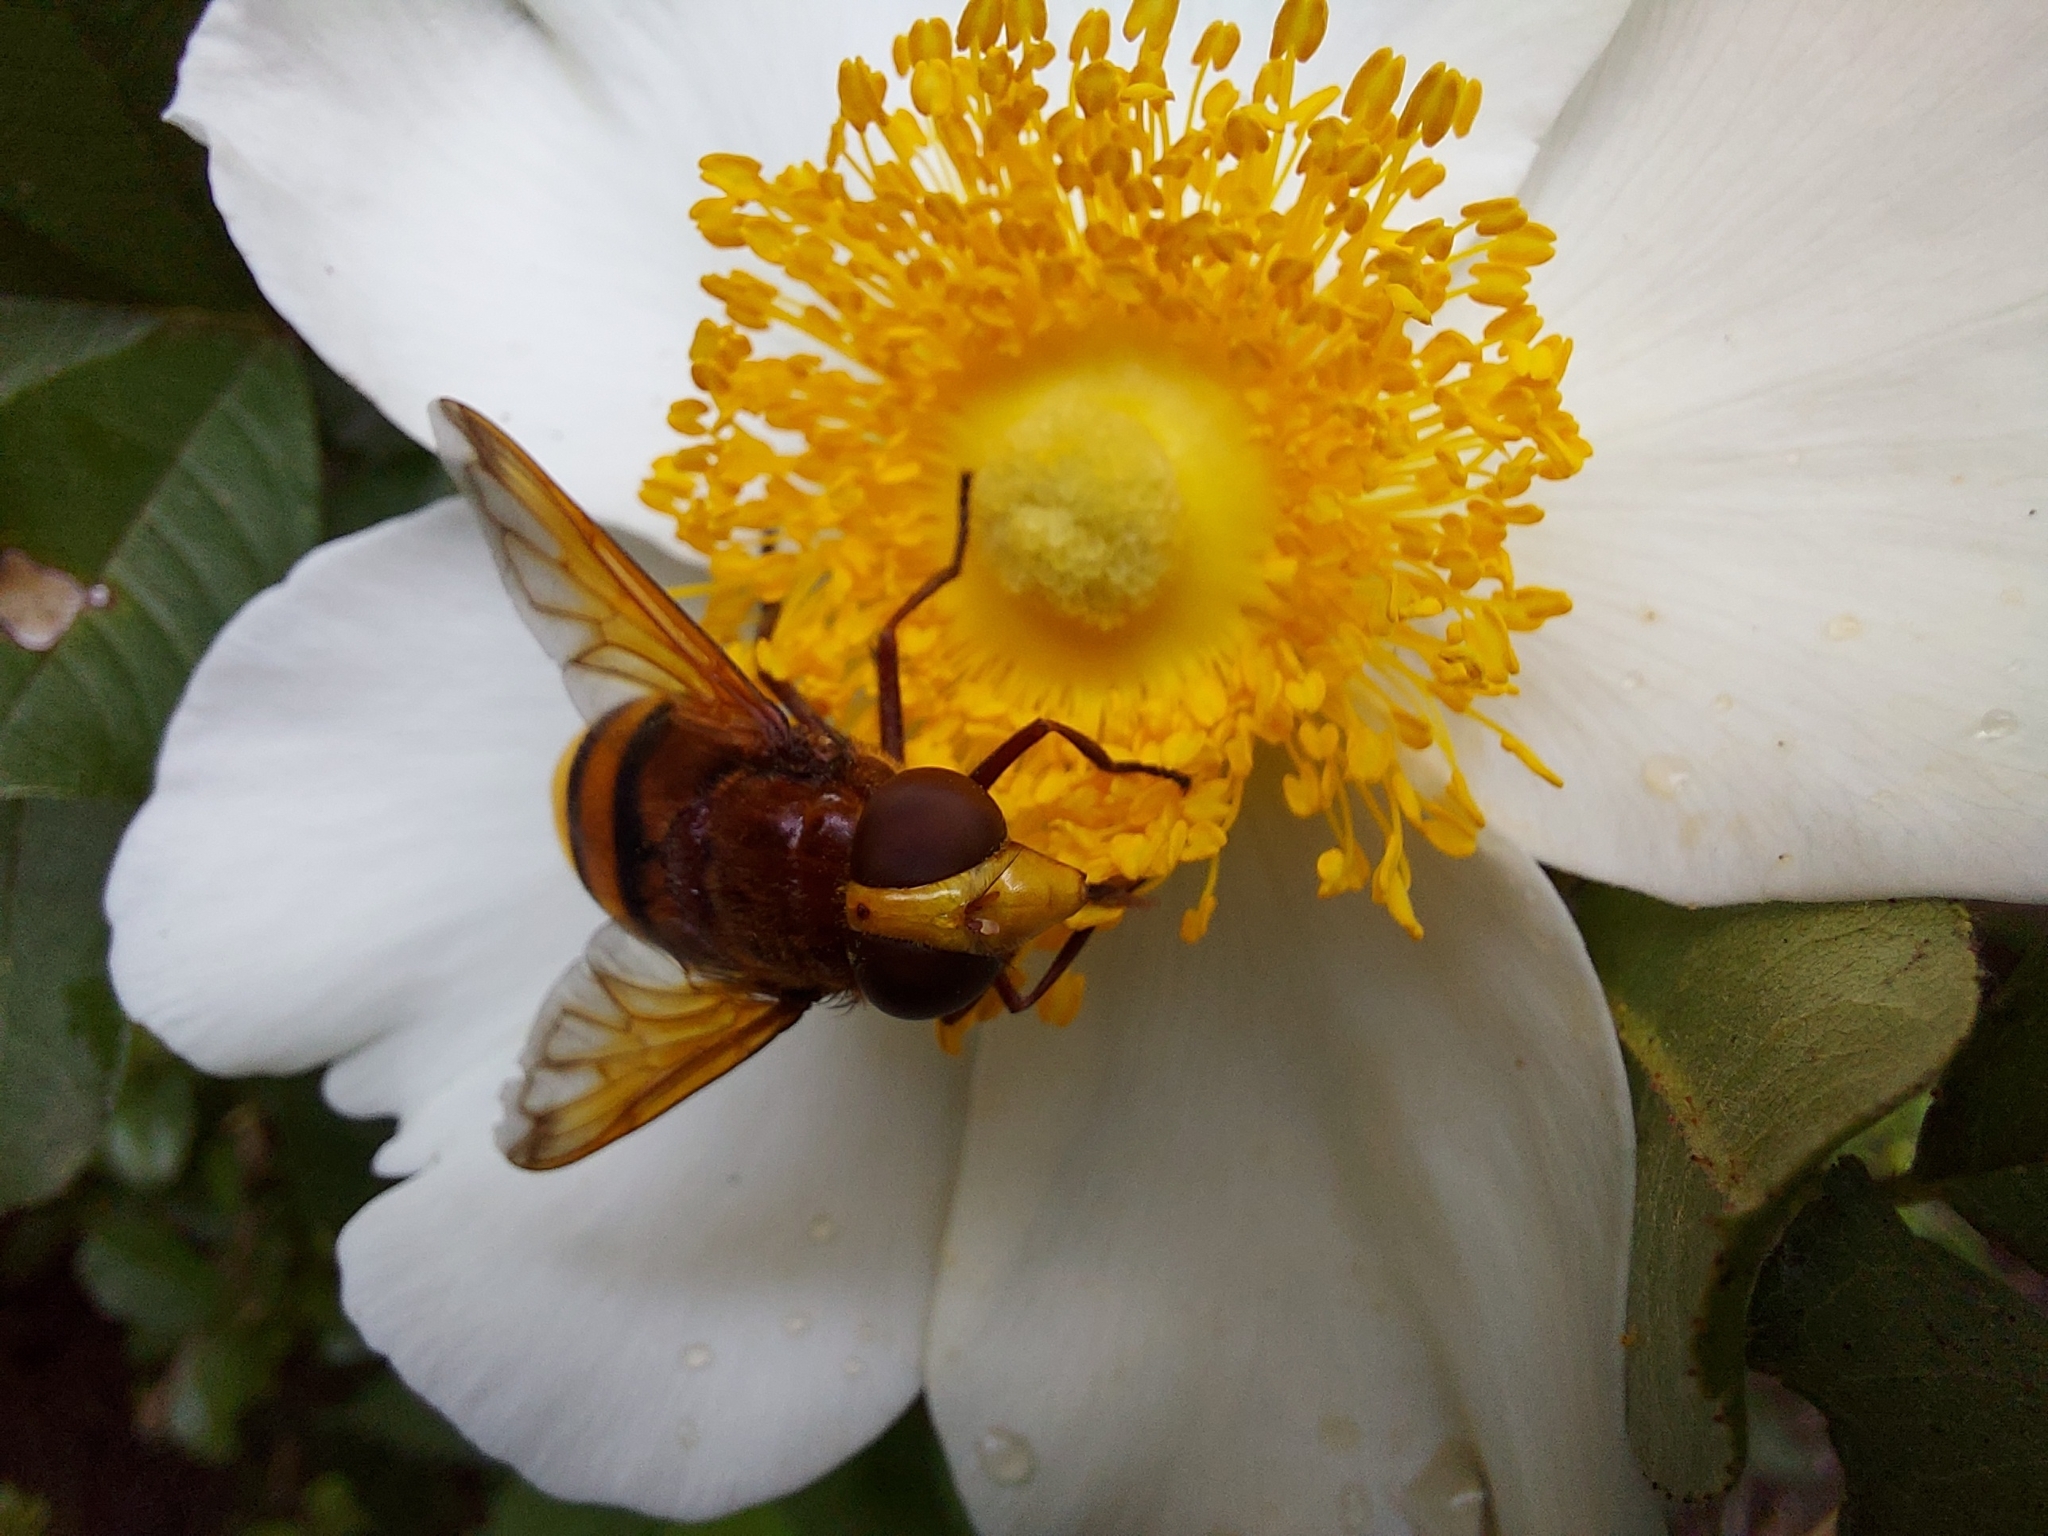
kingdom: Animalia
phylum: Arthropoda
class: Insecta
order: Diptera
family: Syrphidae
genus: Volucella
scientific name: Volucella zonaria
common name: Hornet hoverfly
